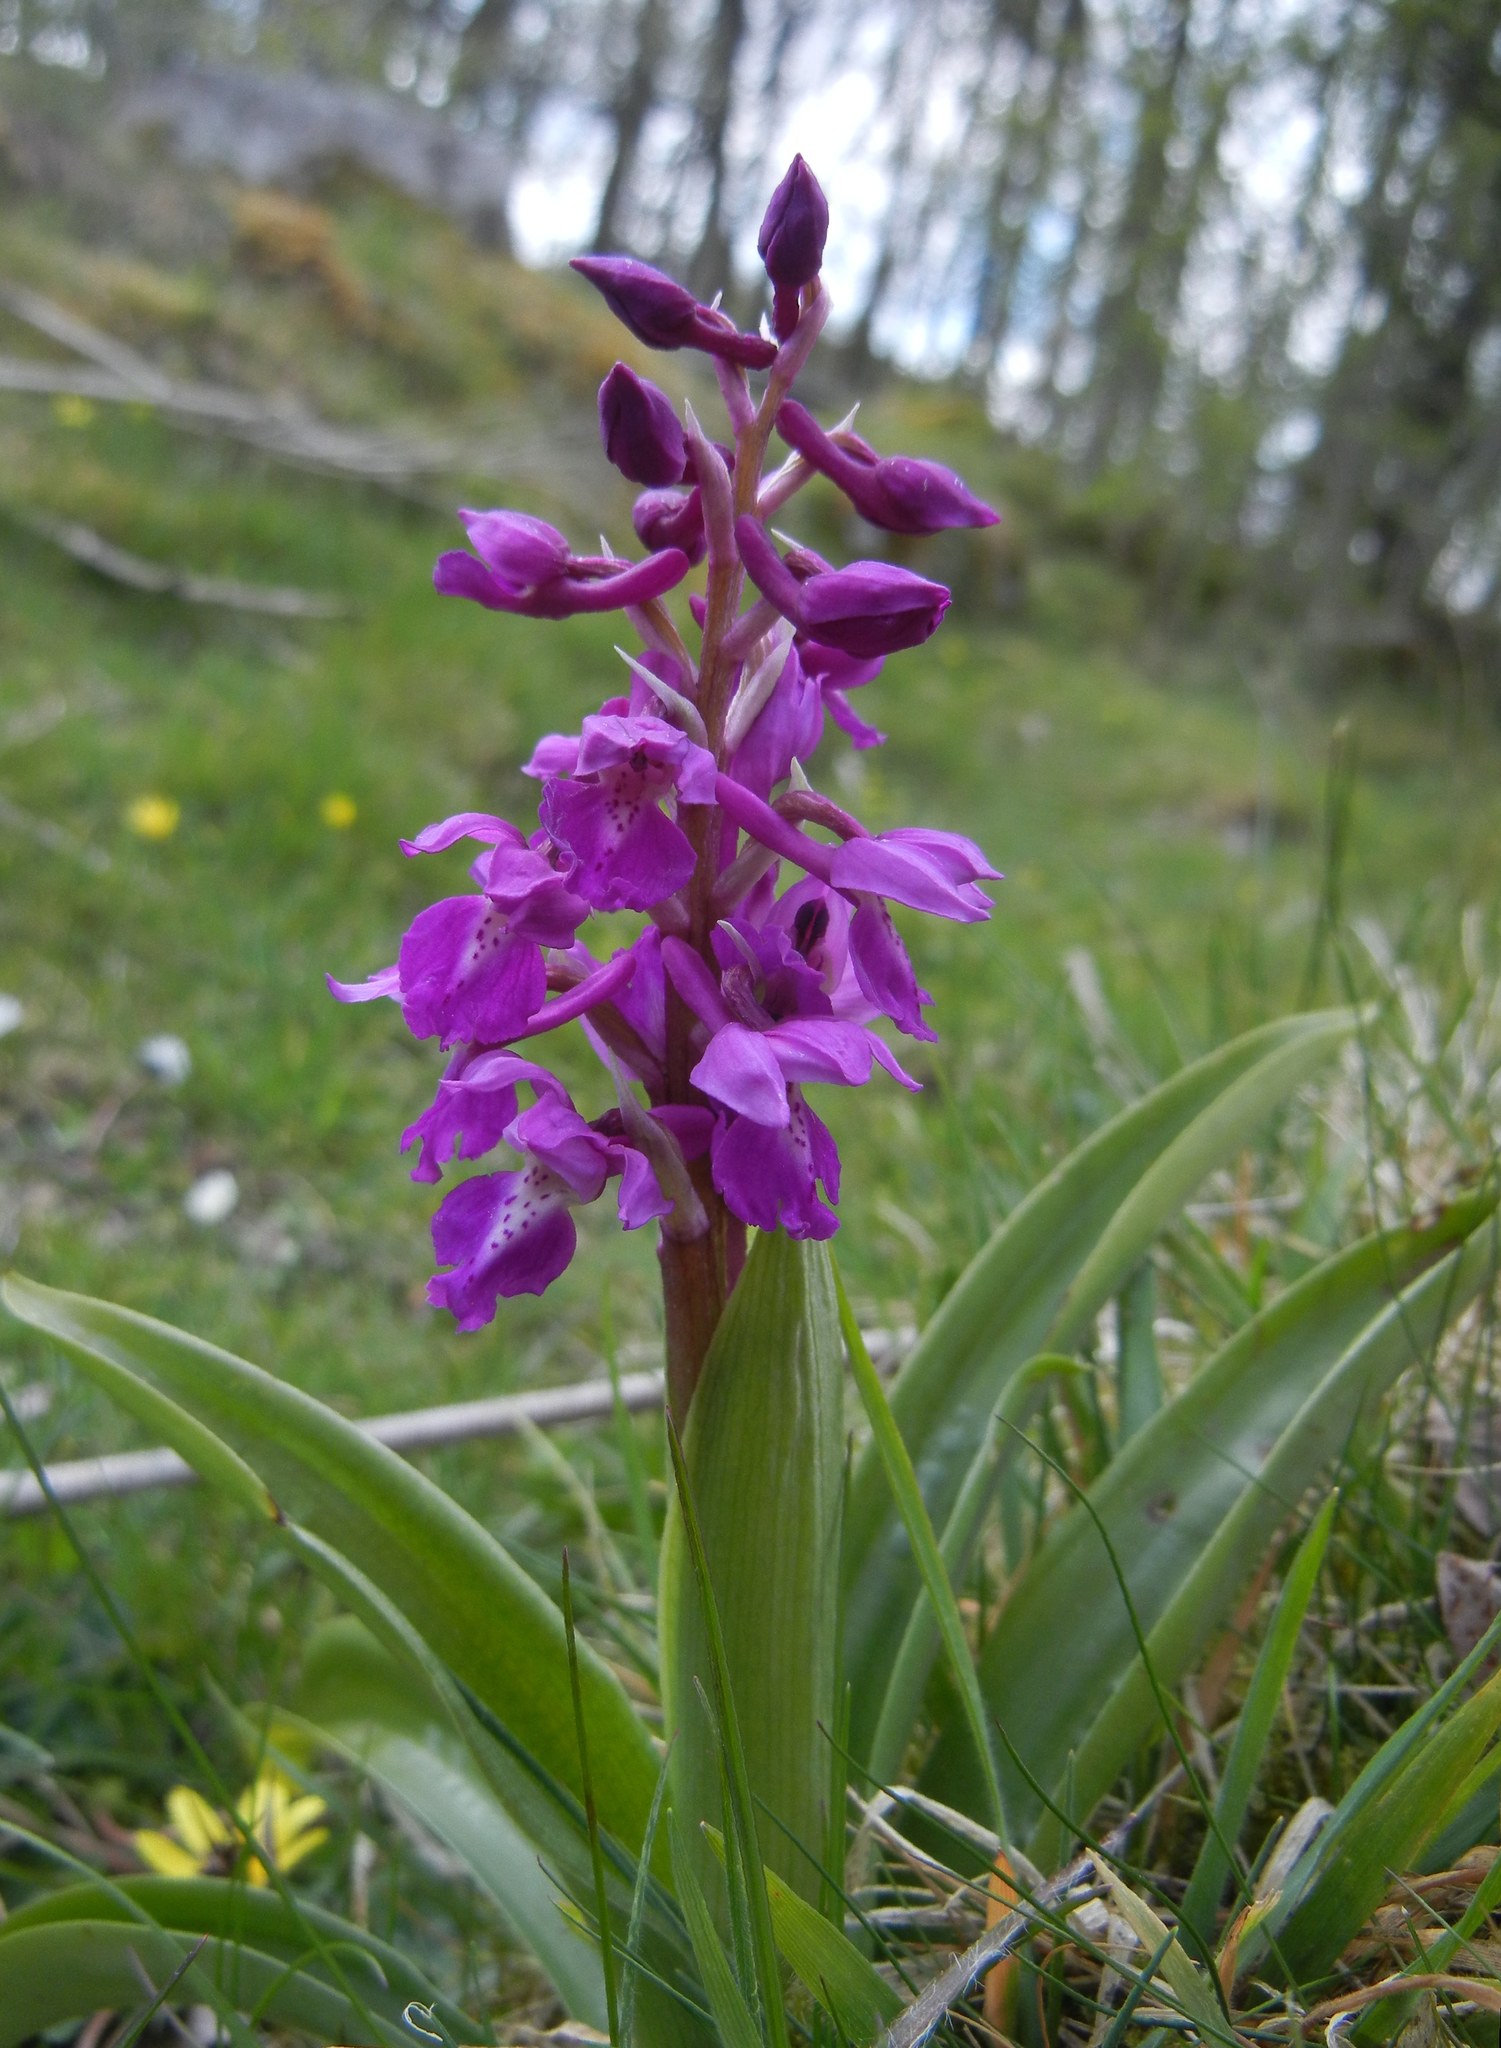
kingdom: Plantae
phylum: Tracheophyta
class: Liliopsida
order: Asparagales
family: Orchidaceae
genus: Orchis
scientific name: Orchis mascula
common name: Early-purple orchid
